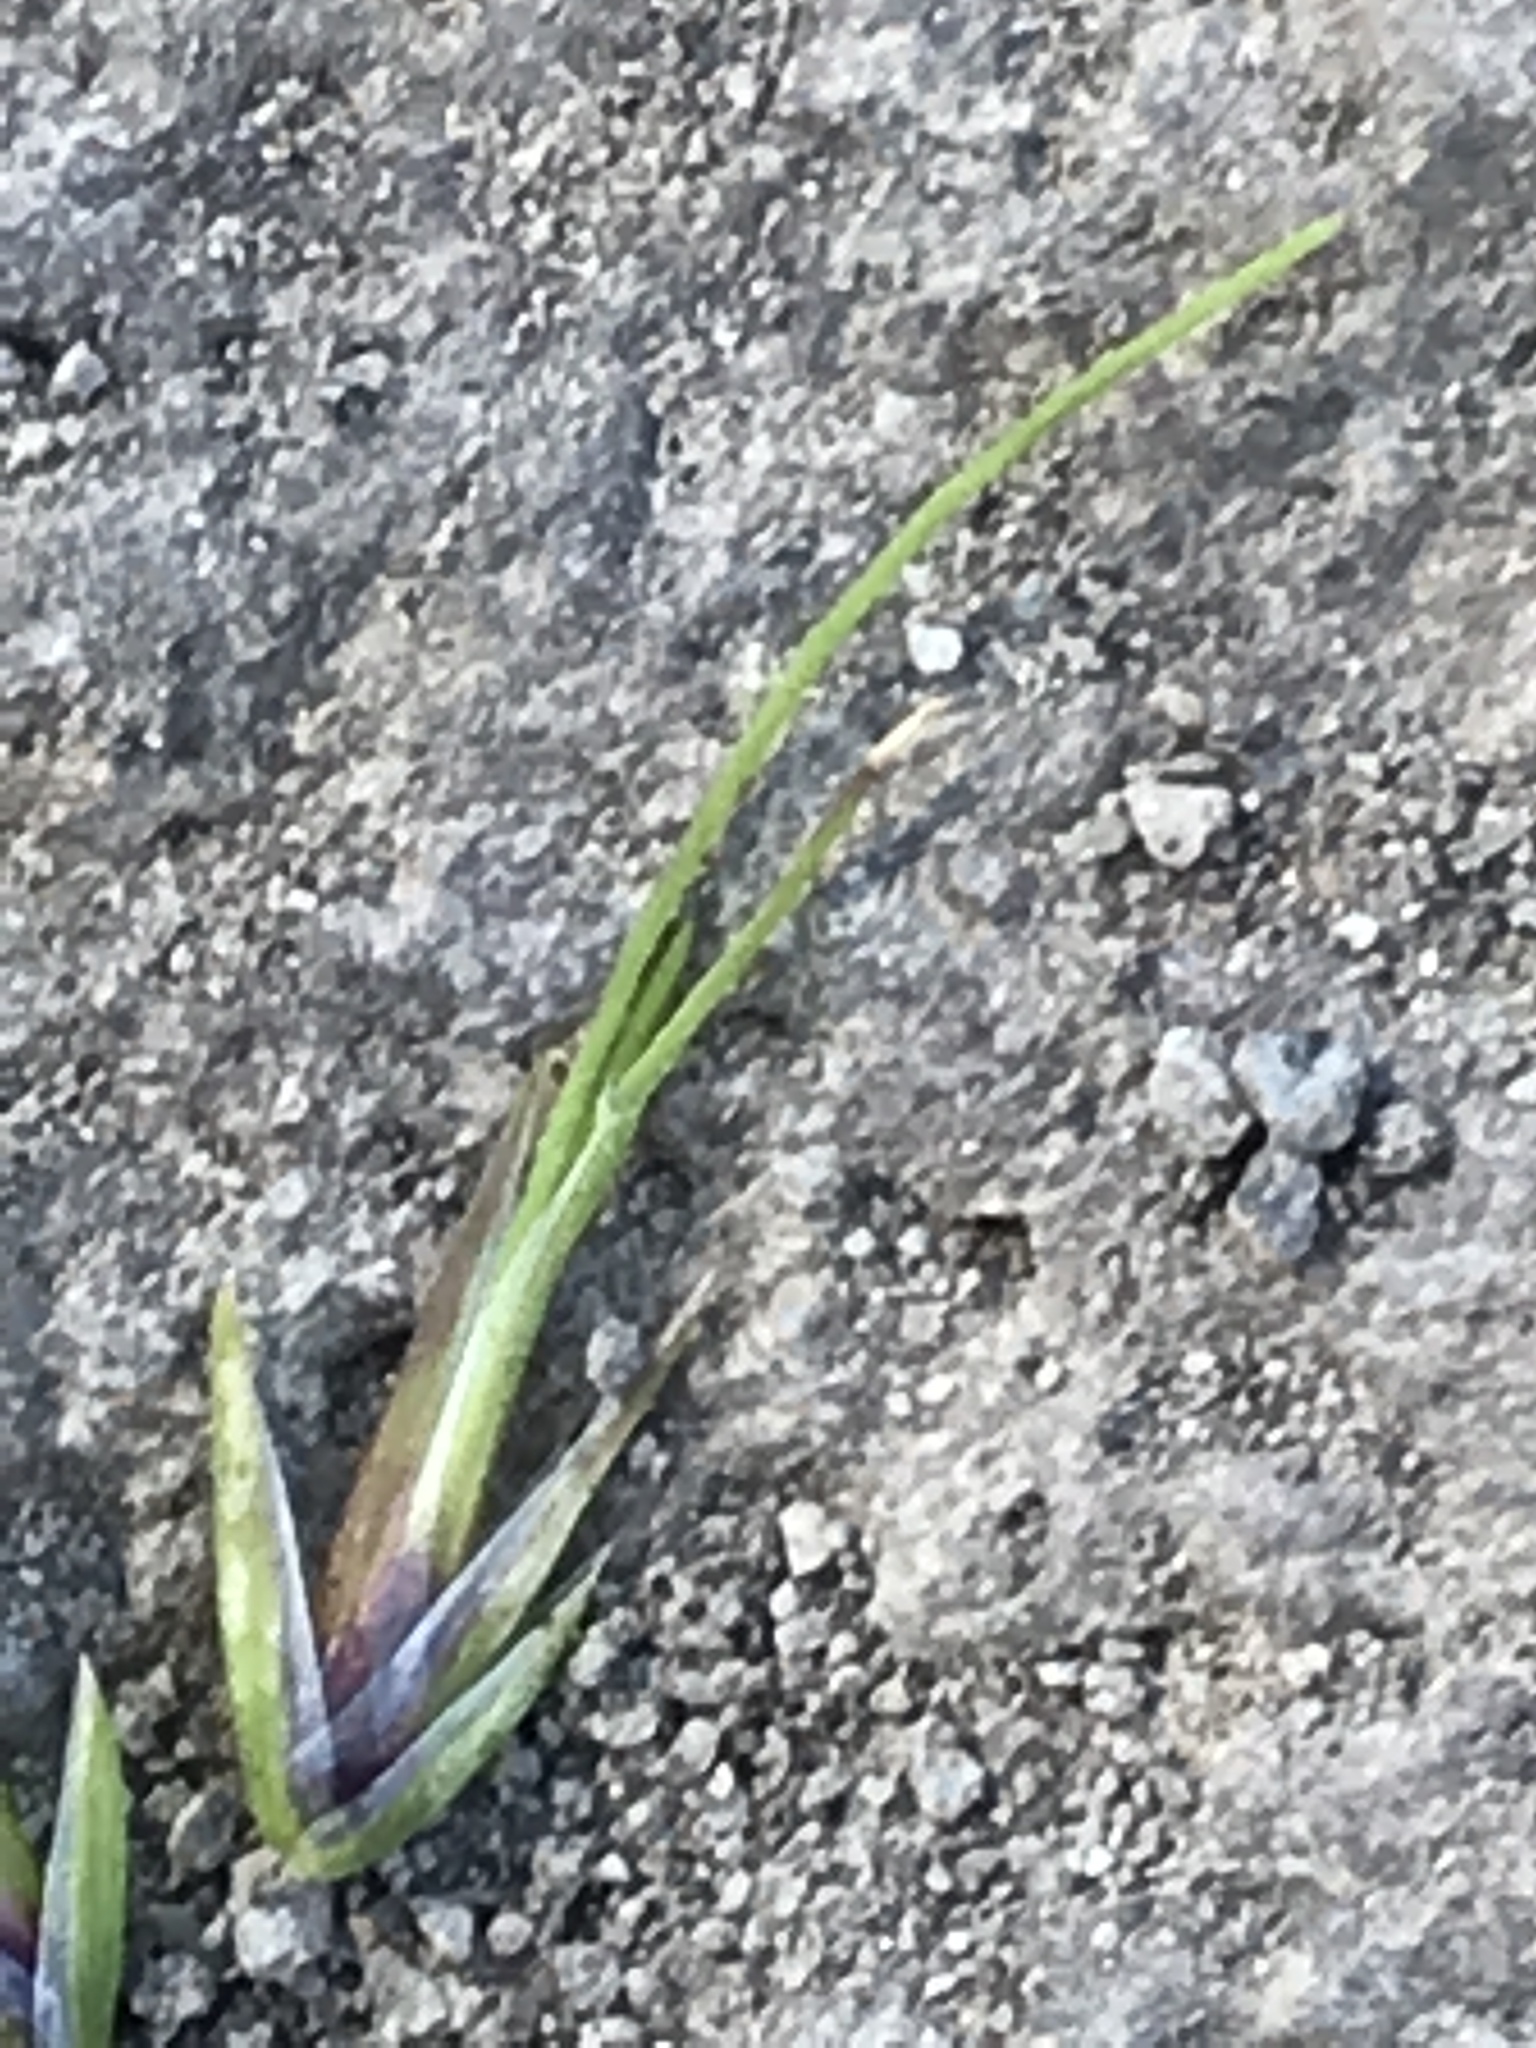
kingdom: Plantae
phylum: Tracheophyta
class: Liliopsida
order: Poales
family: Poaceae
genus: Poa
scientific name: Poa bulbosa
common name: Bulbous bluegrass
